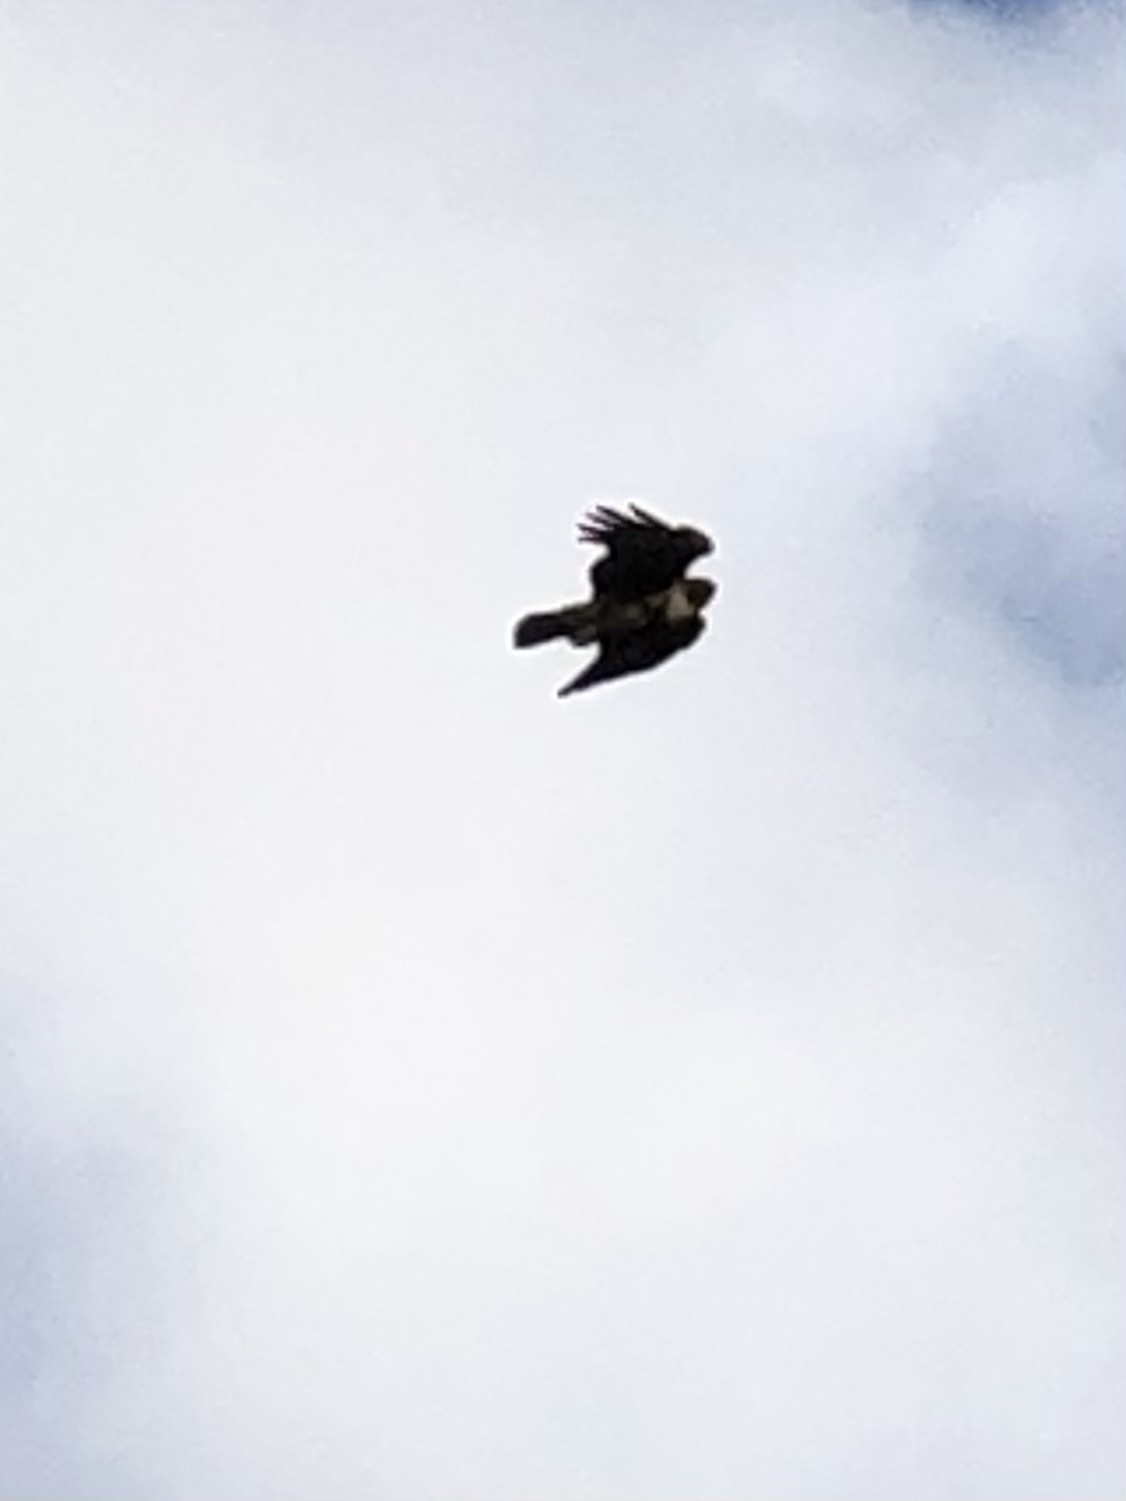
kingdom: Animalia
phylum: Chordata
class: Aves
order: Accipitriformes
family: Accipitridae
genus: Buteo
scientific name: Buteo jamaicensis
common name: Red-tailed hawk
